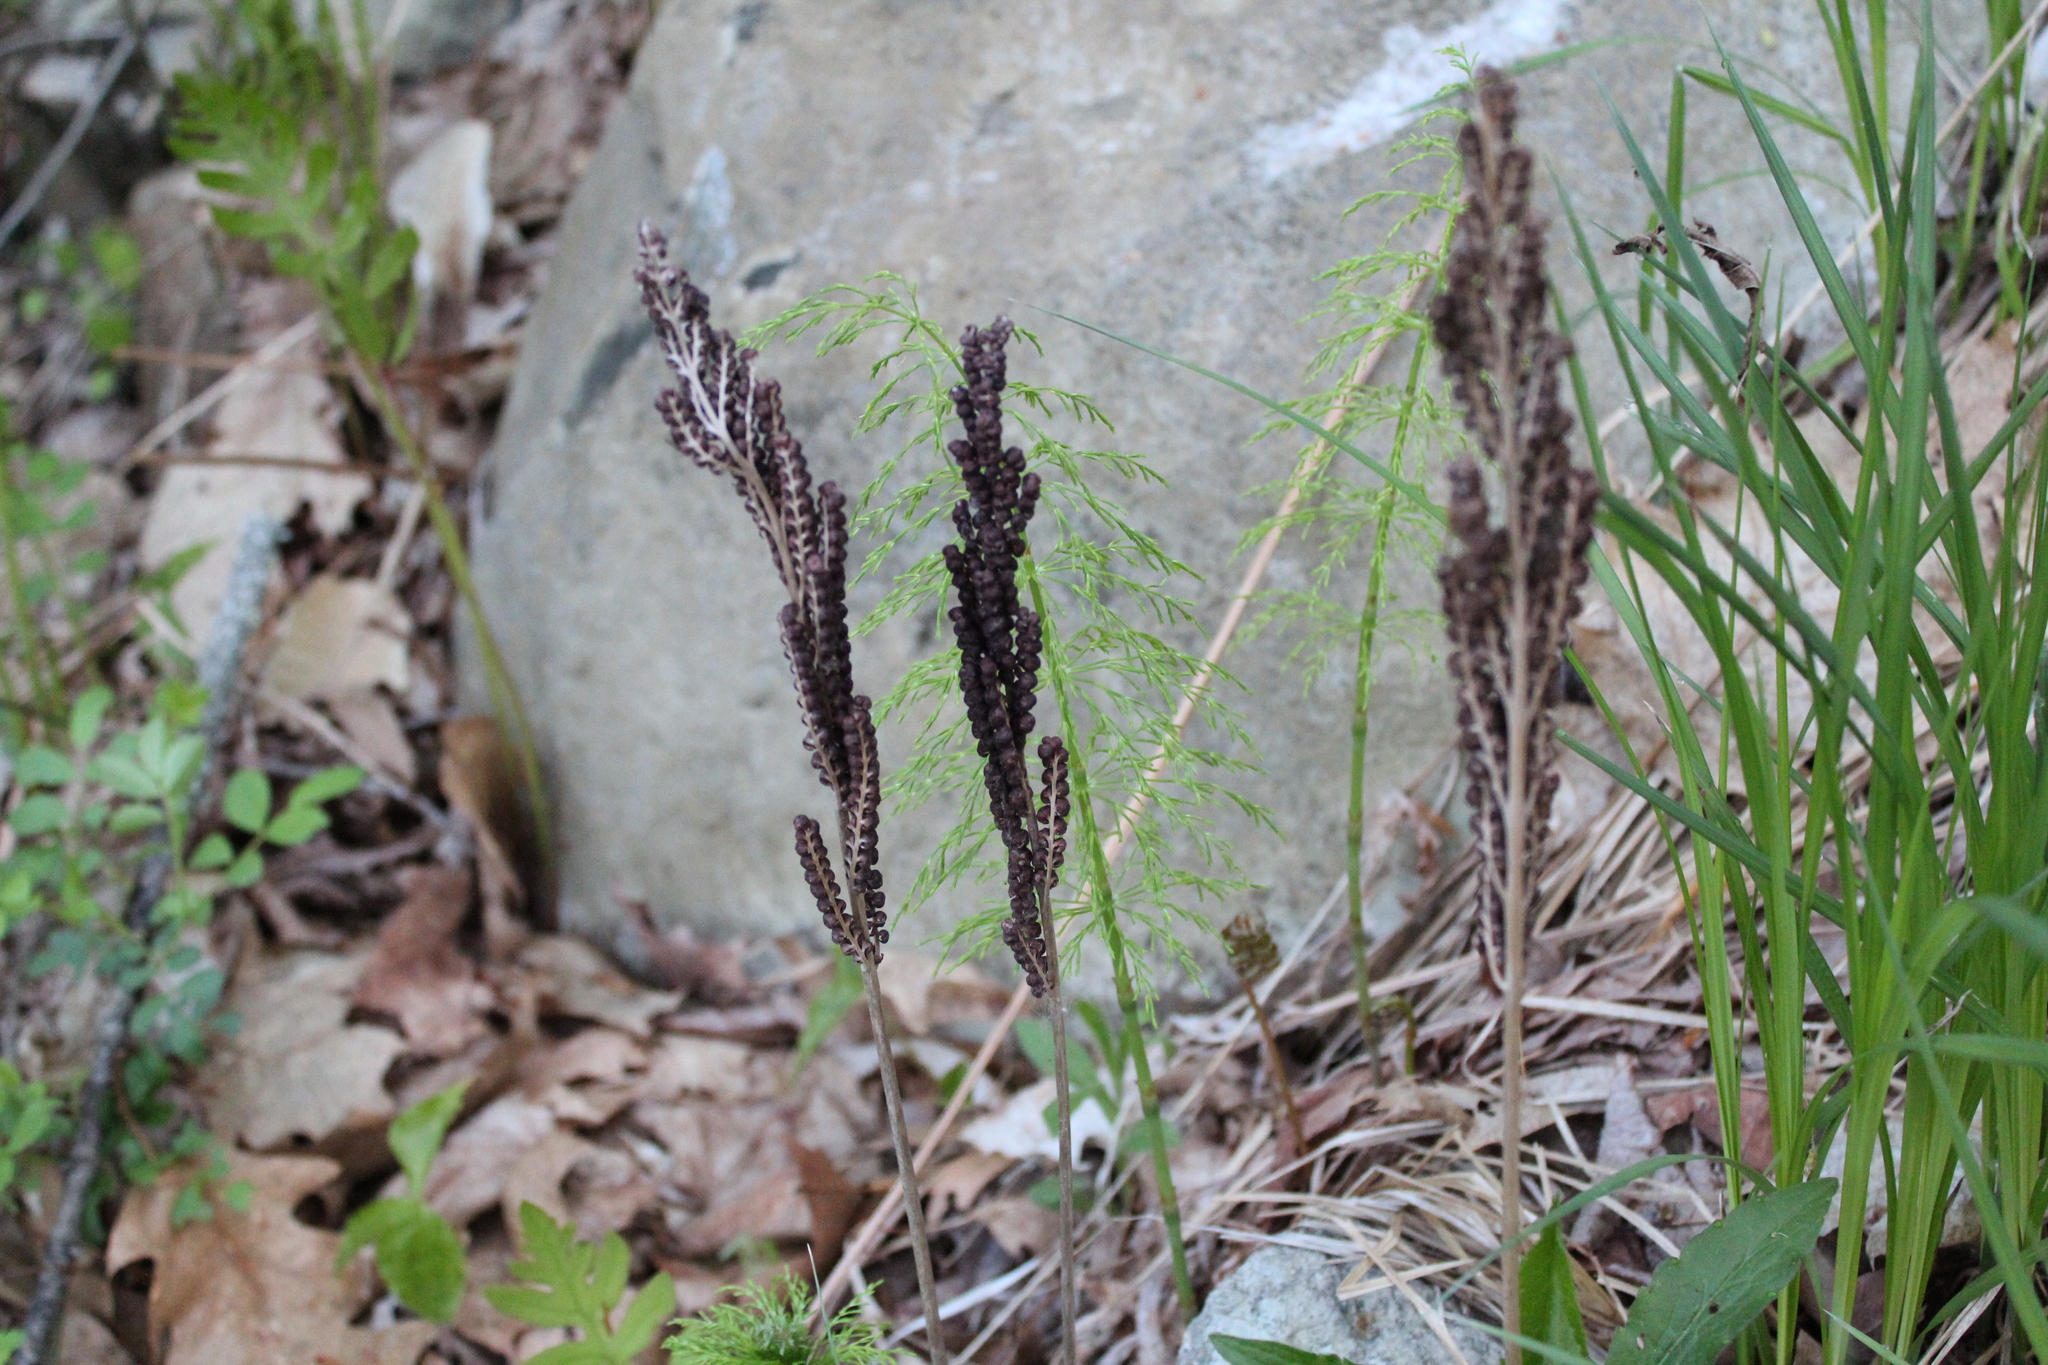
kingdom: Plantae
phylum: Tracheophyta
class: Polypodiopsida
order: Polypodiales
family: Onocleaceae
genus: Onoclea
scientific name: Onoclea sensibilis
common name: Sensitive fern
